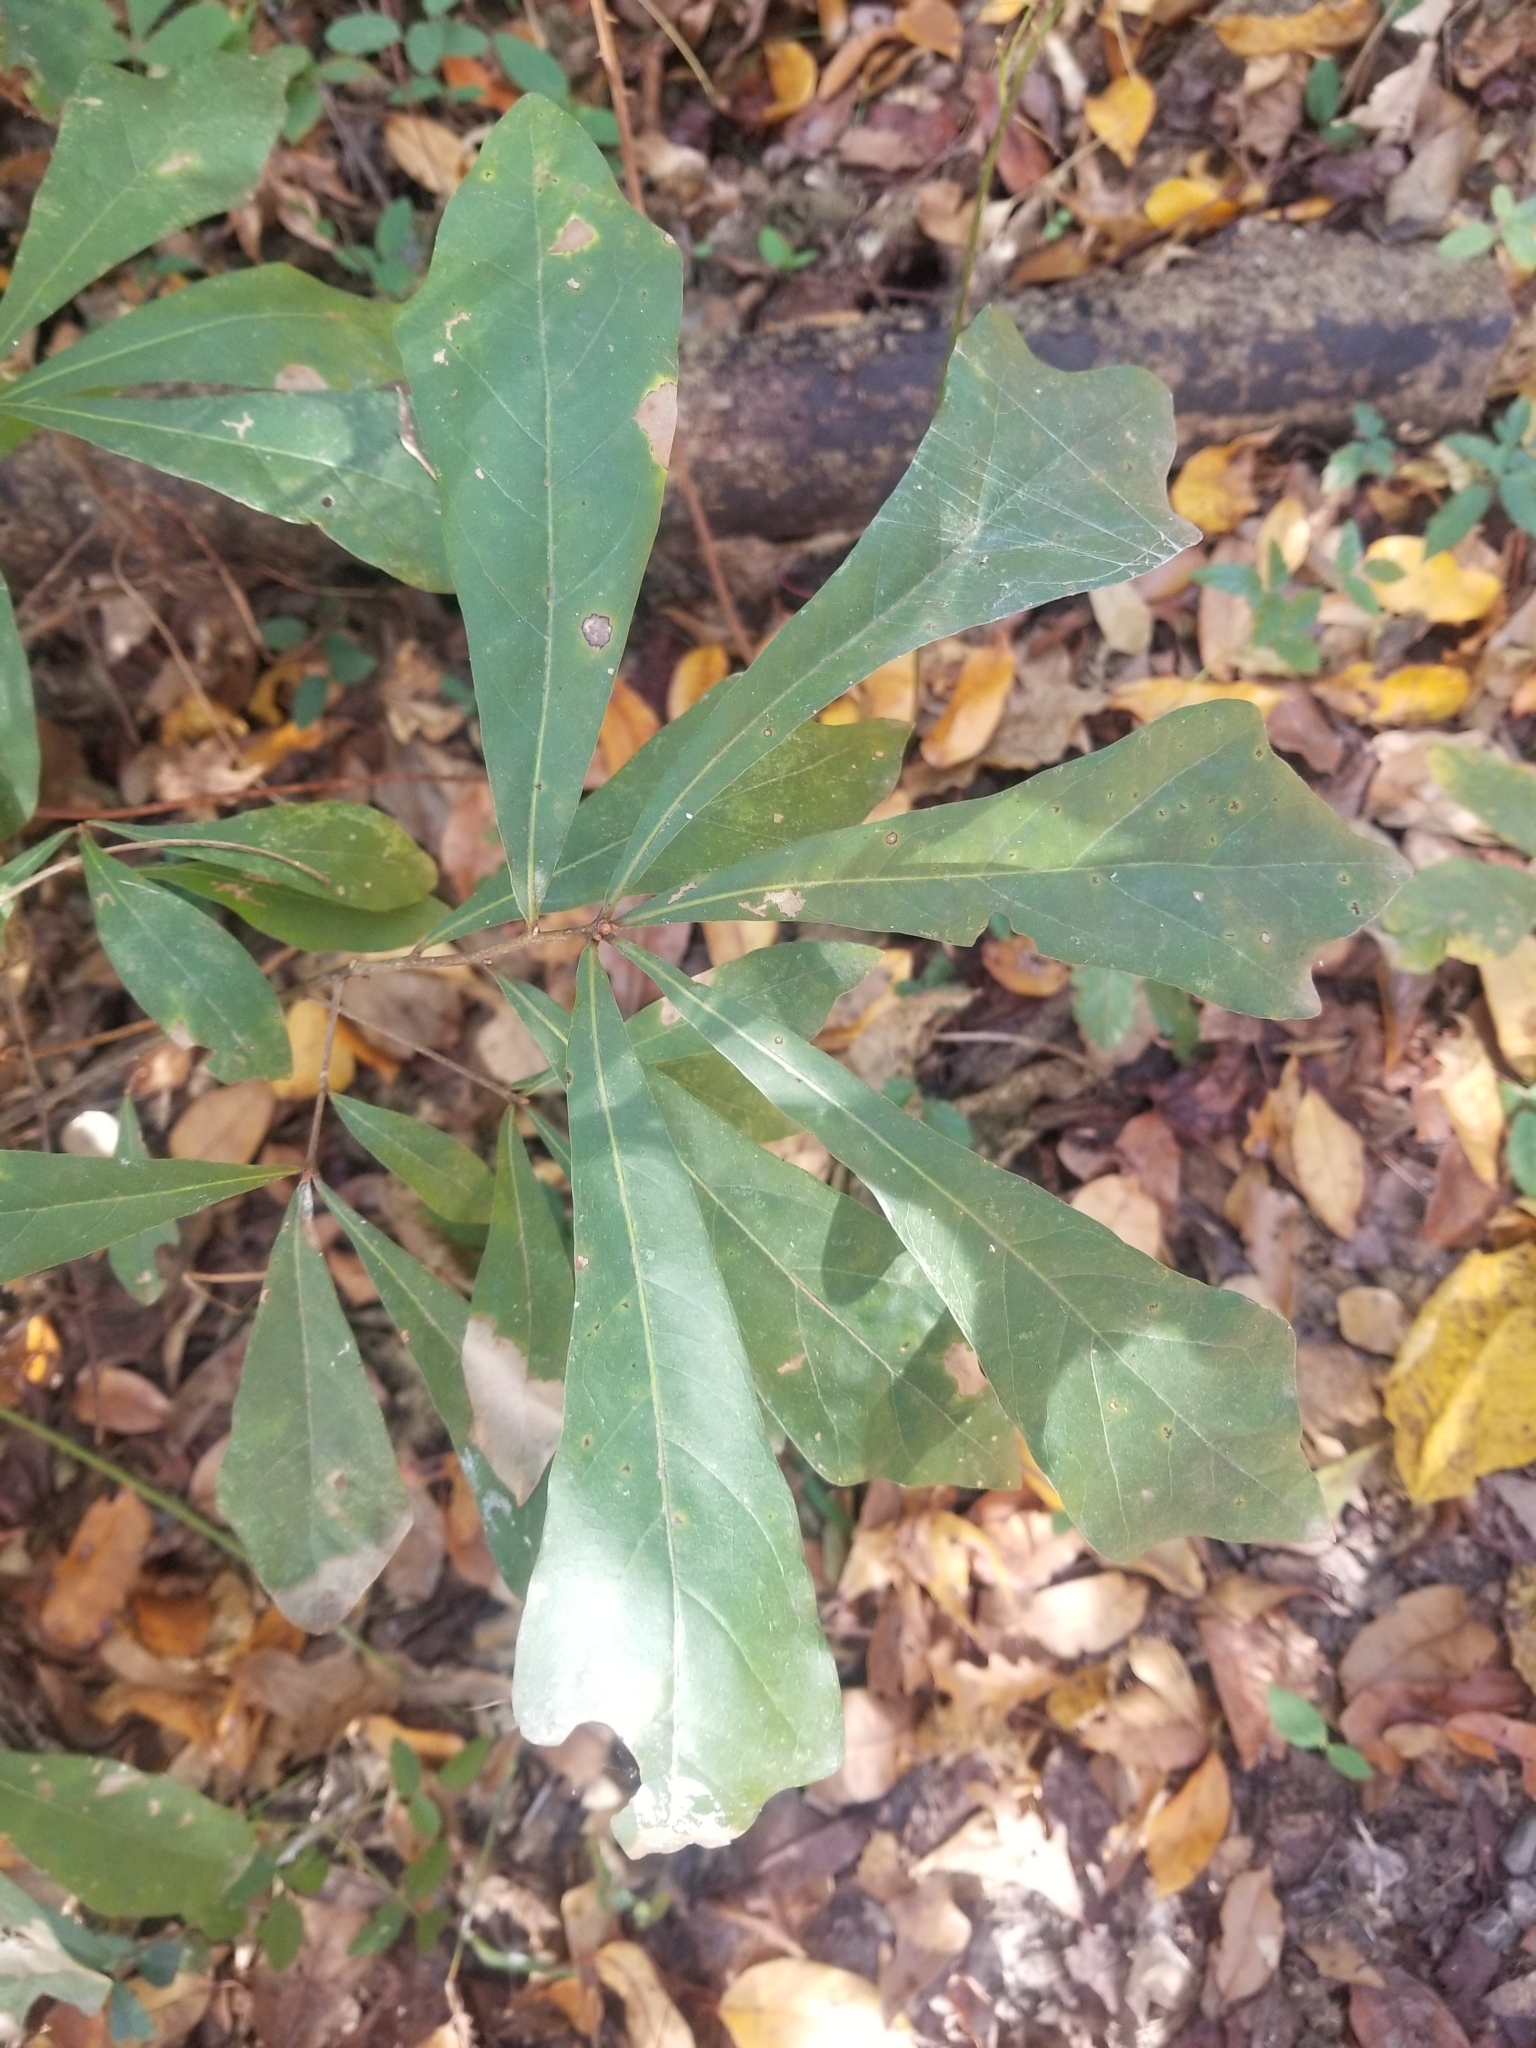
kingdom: Plantae
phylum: Tracheophyta
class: Magnoliopsida
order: Fagales
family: Fagaceae
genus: Quercus
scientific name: Quercus nigra
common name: Water oak
